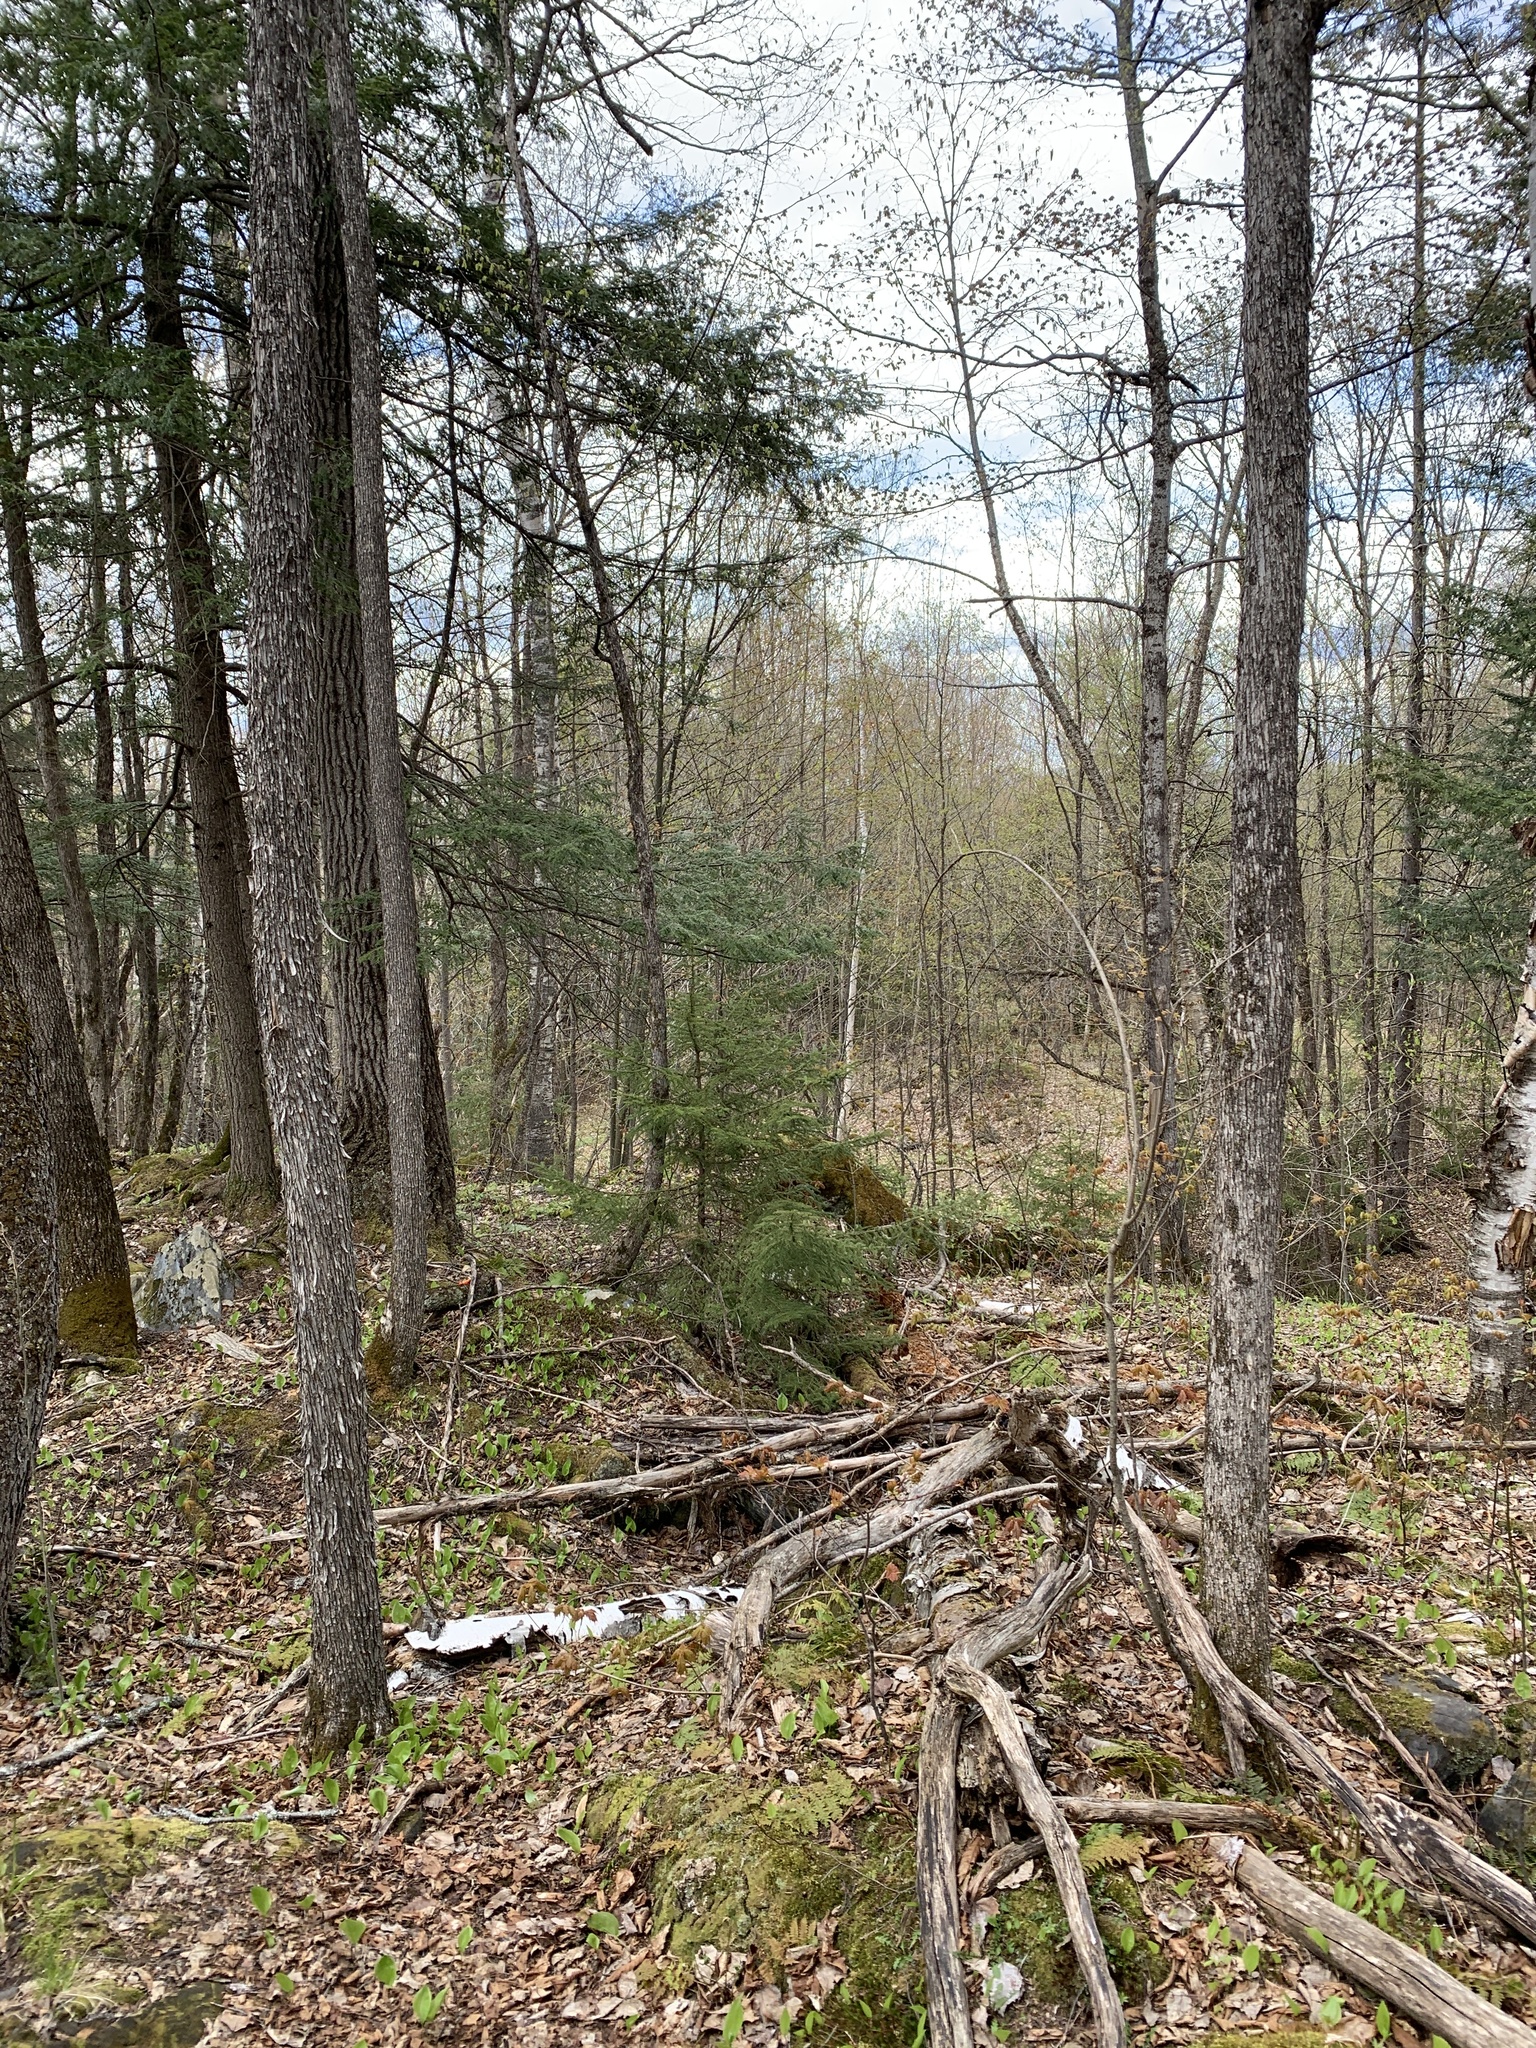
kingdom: Plantae
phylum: Tracheophyta
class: Magnoliopsida
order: Fagales
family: Betulaceae
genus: Ostrya
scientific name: Ostrya virginiana
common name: Ironwood
